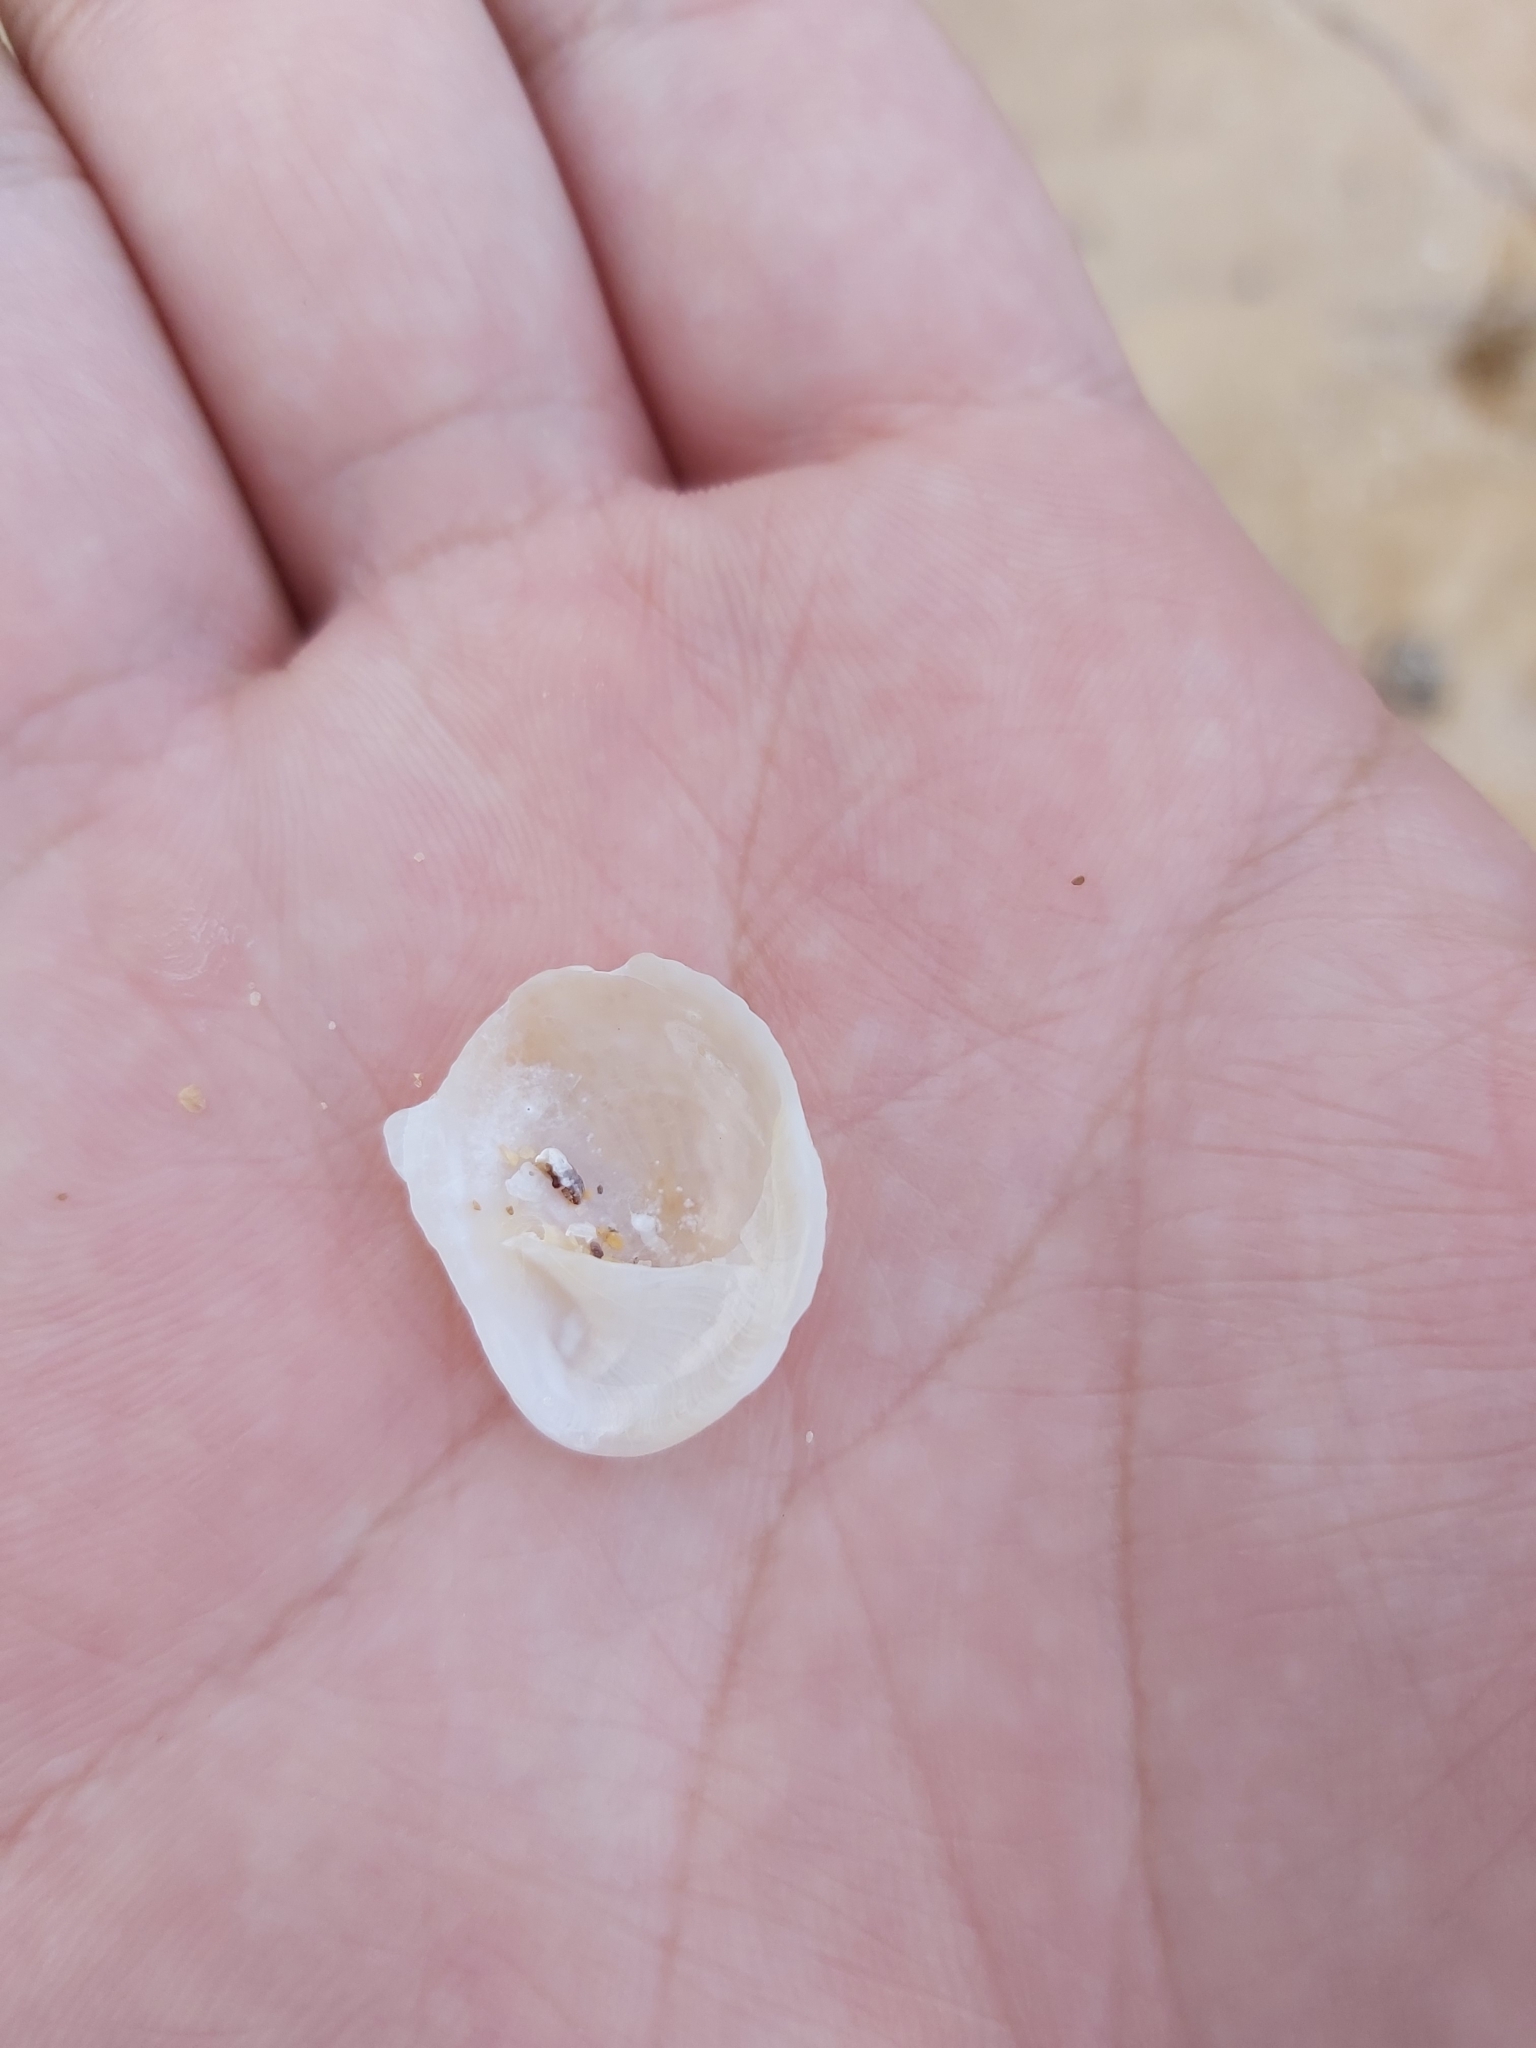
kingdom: Animalia
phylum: Mollusca
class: Gastropoda
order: Littorinimorpha
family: Calyptraeidae
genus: Bostrycapulus
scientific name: Bostrycapulus pritzkeri
